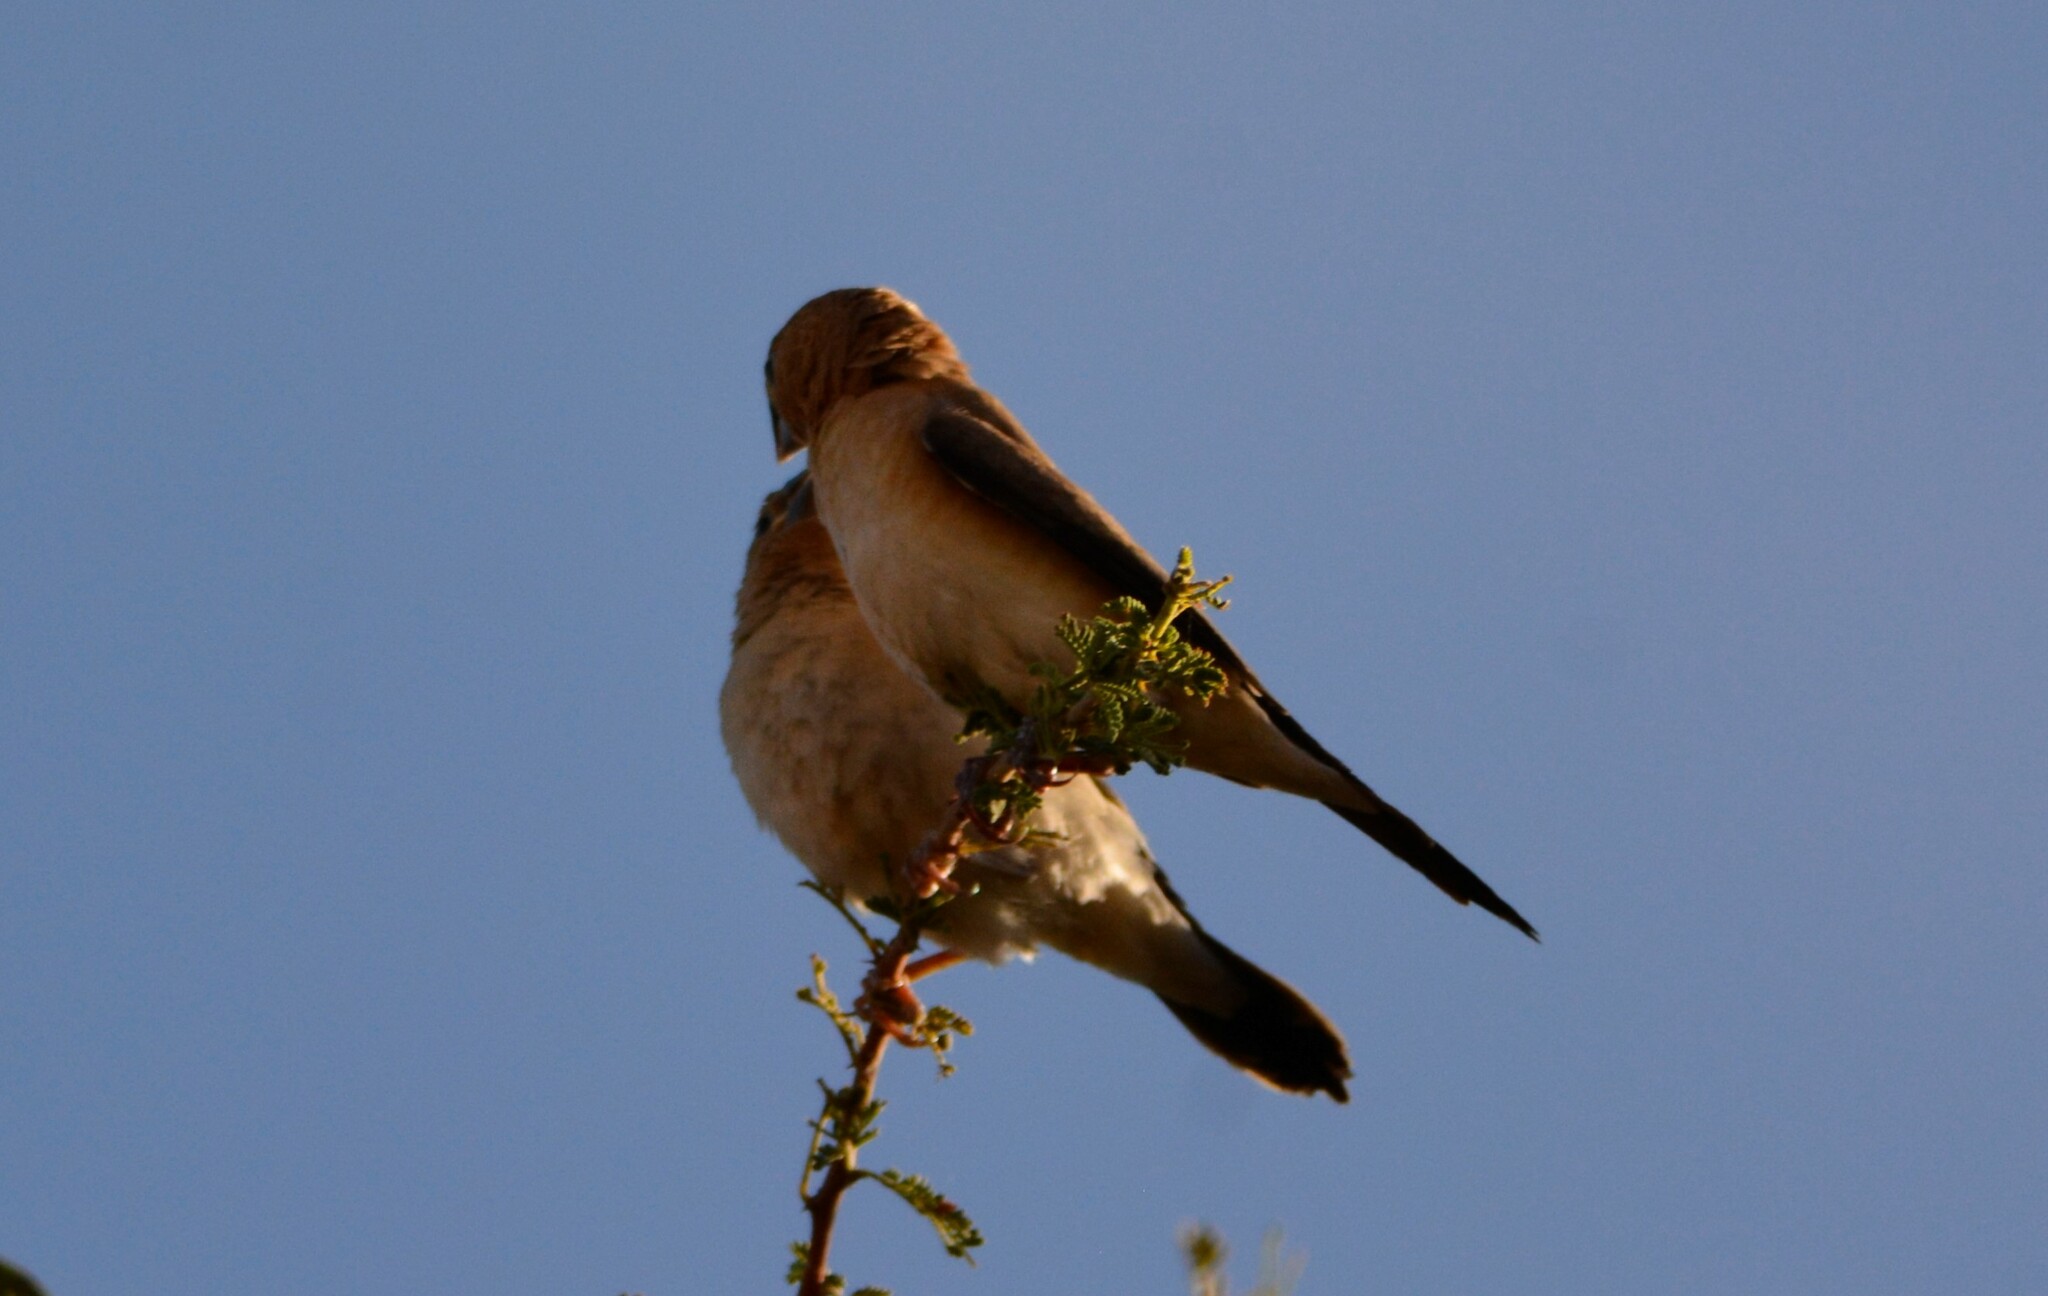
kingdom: Animalia
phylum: Chordata
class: Aves
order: Passeriformes
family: Estrildidae
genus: Euodice
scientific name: Euodice cantans
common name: African silverbill
